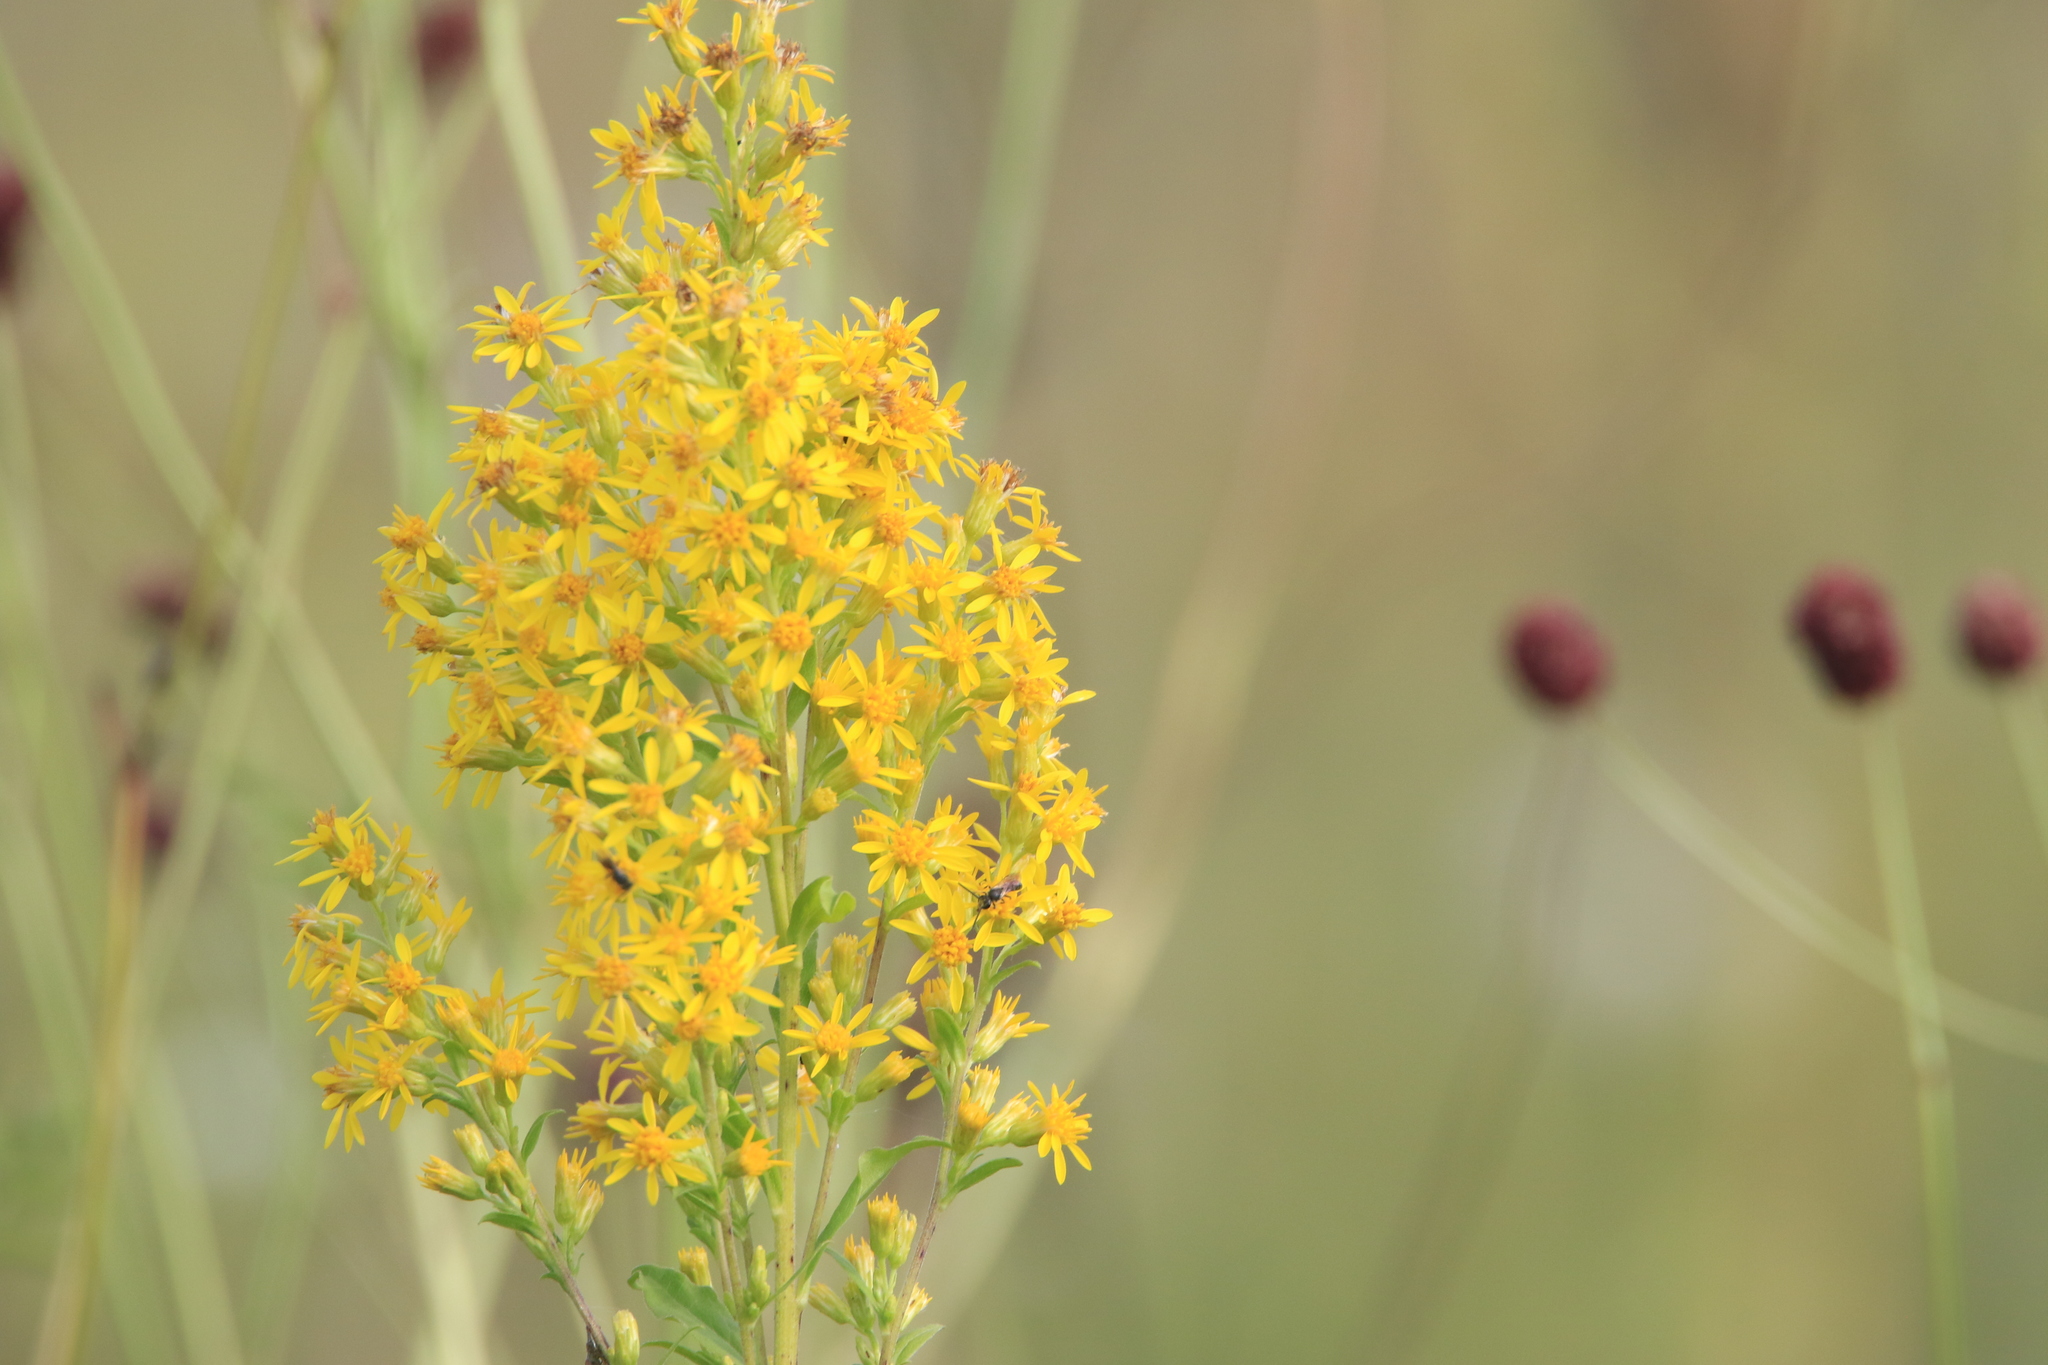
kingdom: Plantae
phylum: Tracheophyta
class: Magnoliopsida
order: Asterales
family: Asteraceae
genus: Solidago
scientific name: Solidago virgaurea
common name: Goldenrod
